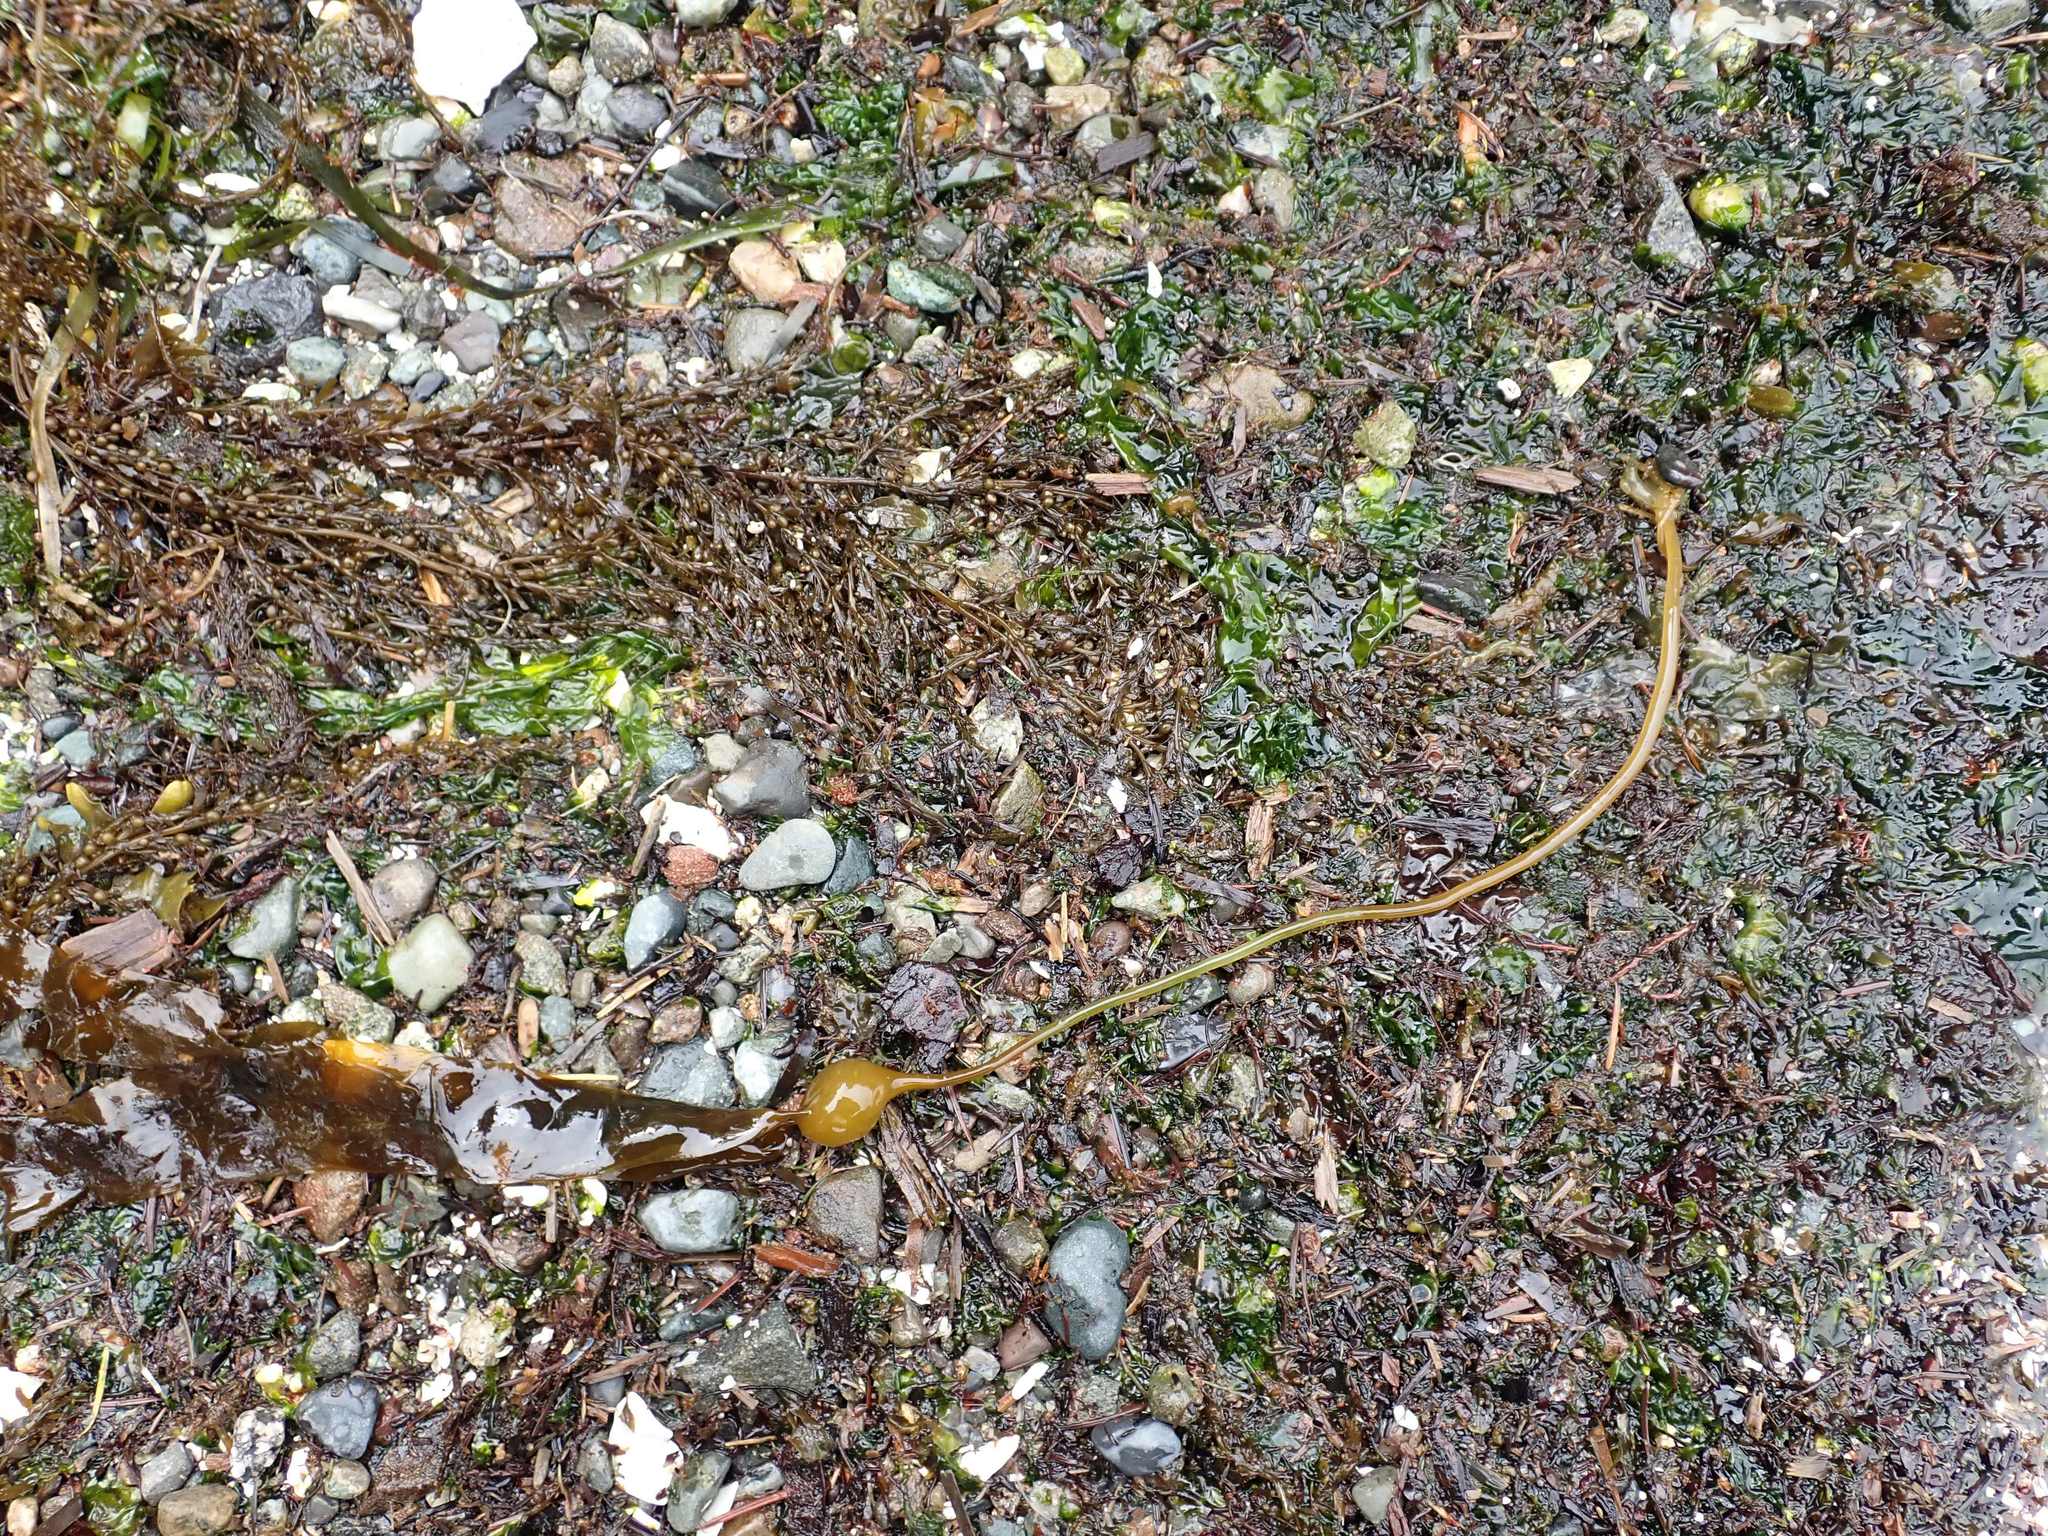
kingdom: Chromista
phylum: Ochrophyta
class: Phaeophyceae
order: Laminariales
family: Laminariaceae
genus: Nereocystis
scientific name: Nereocystis luetkeana
